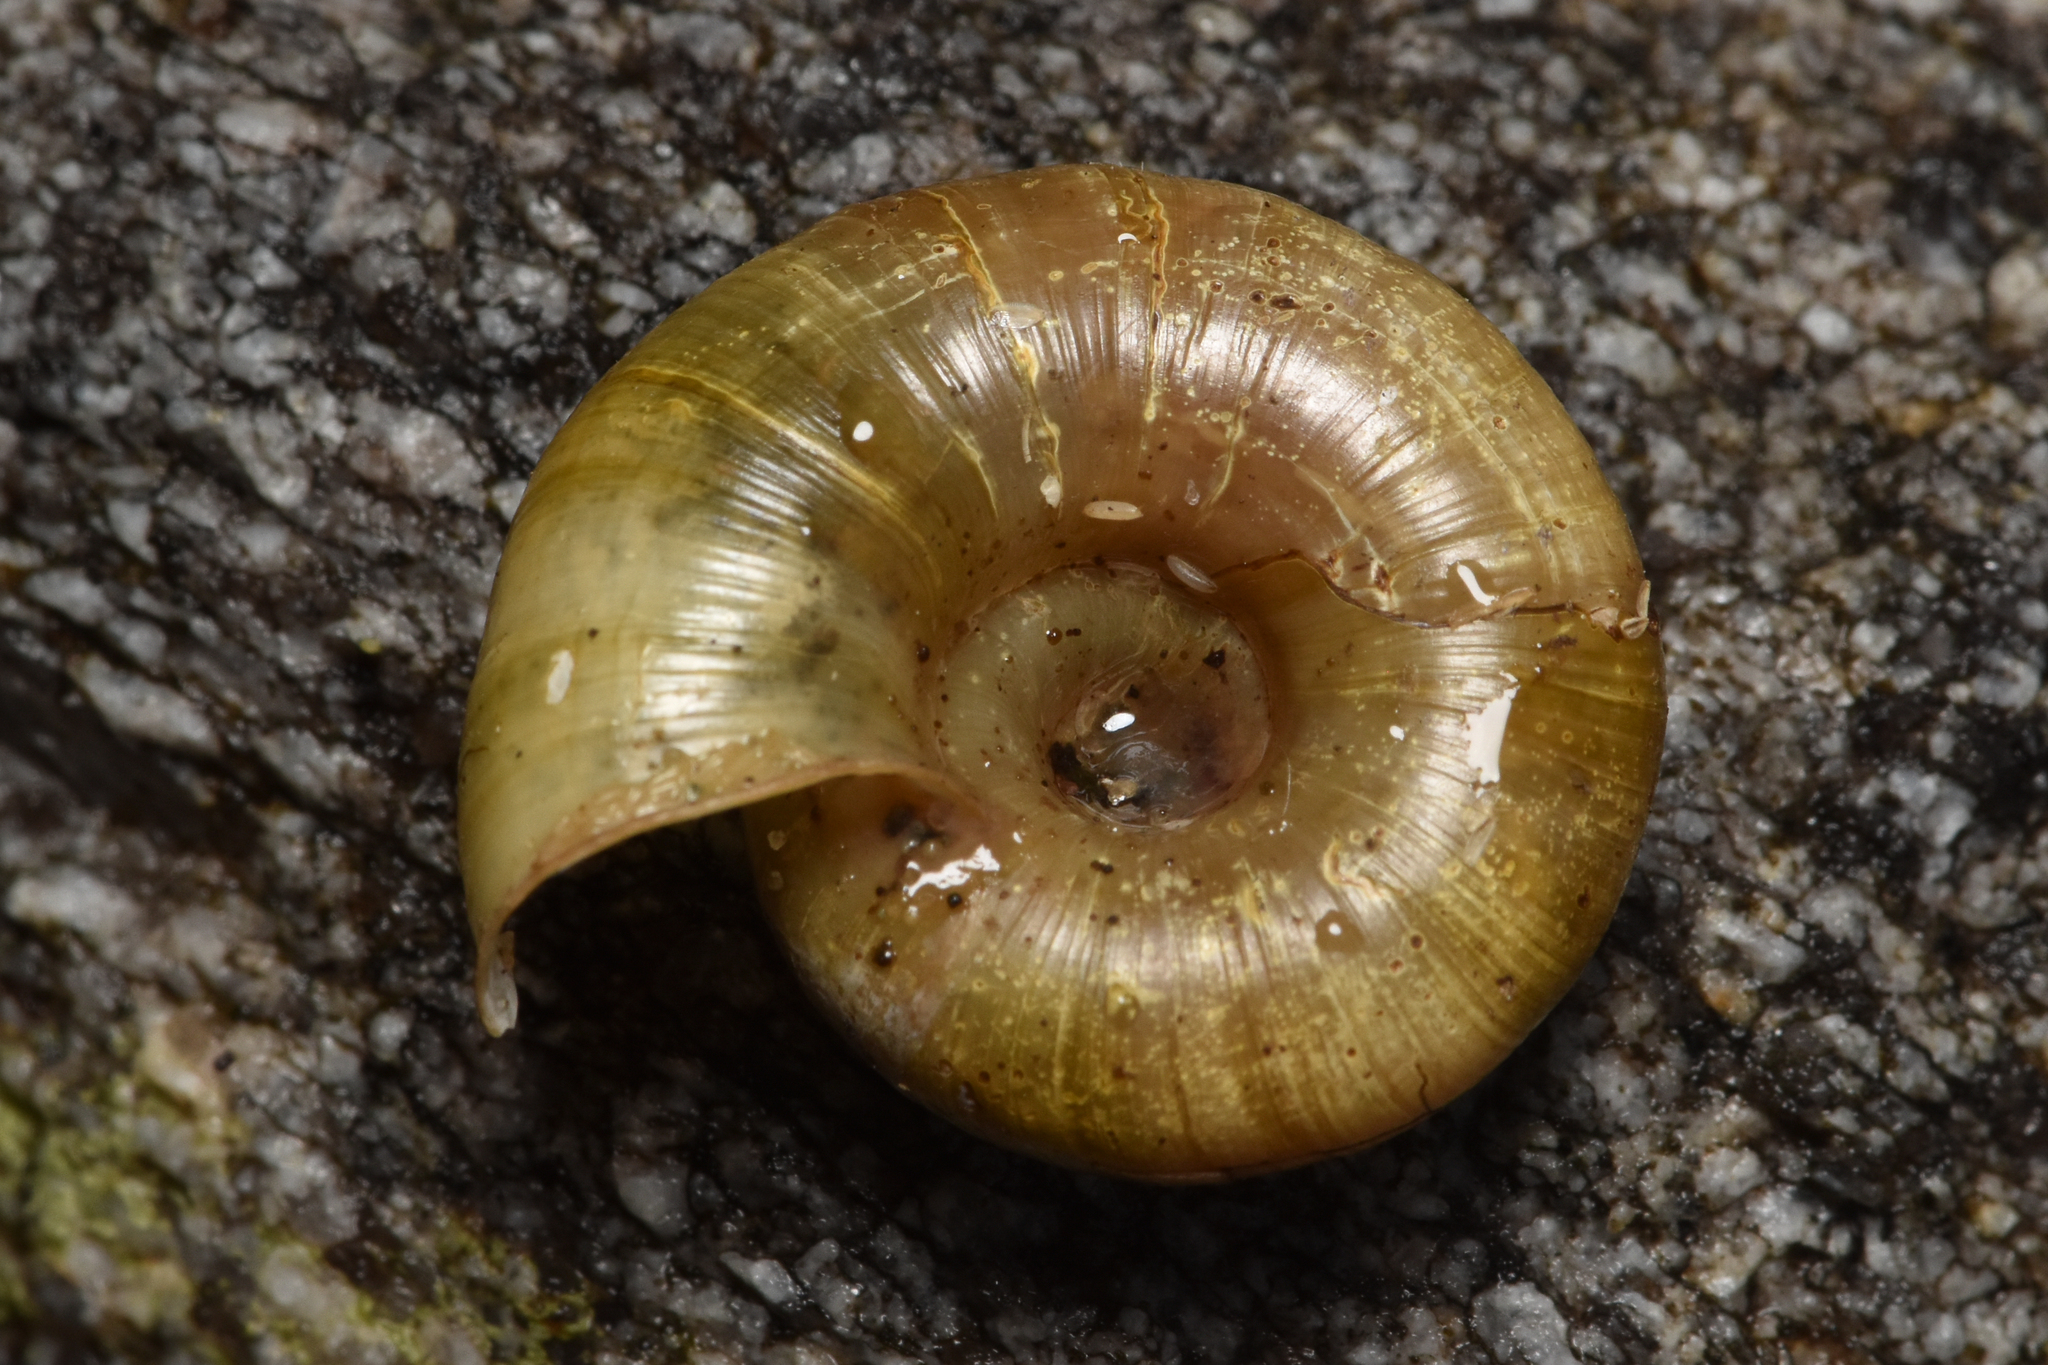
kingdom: Animalia
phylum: Mollusca
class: Gastropoda
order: Stylommatophora
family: Haplotrematidae
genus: Haplotrema
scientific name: Haplotrema vancouverense
